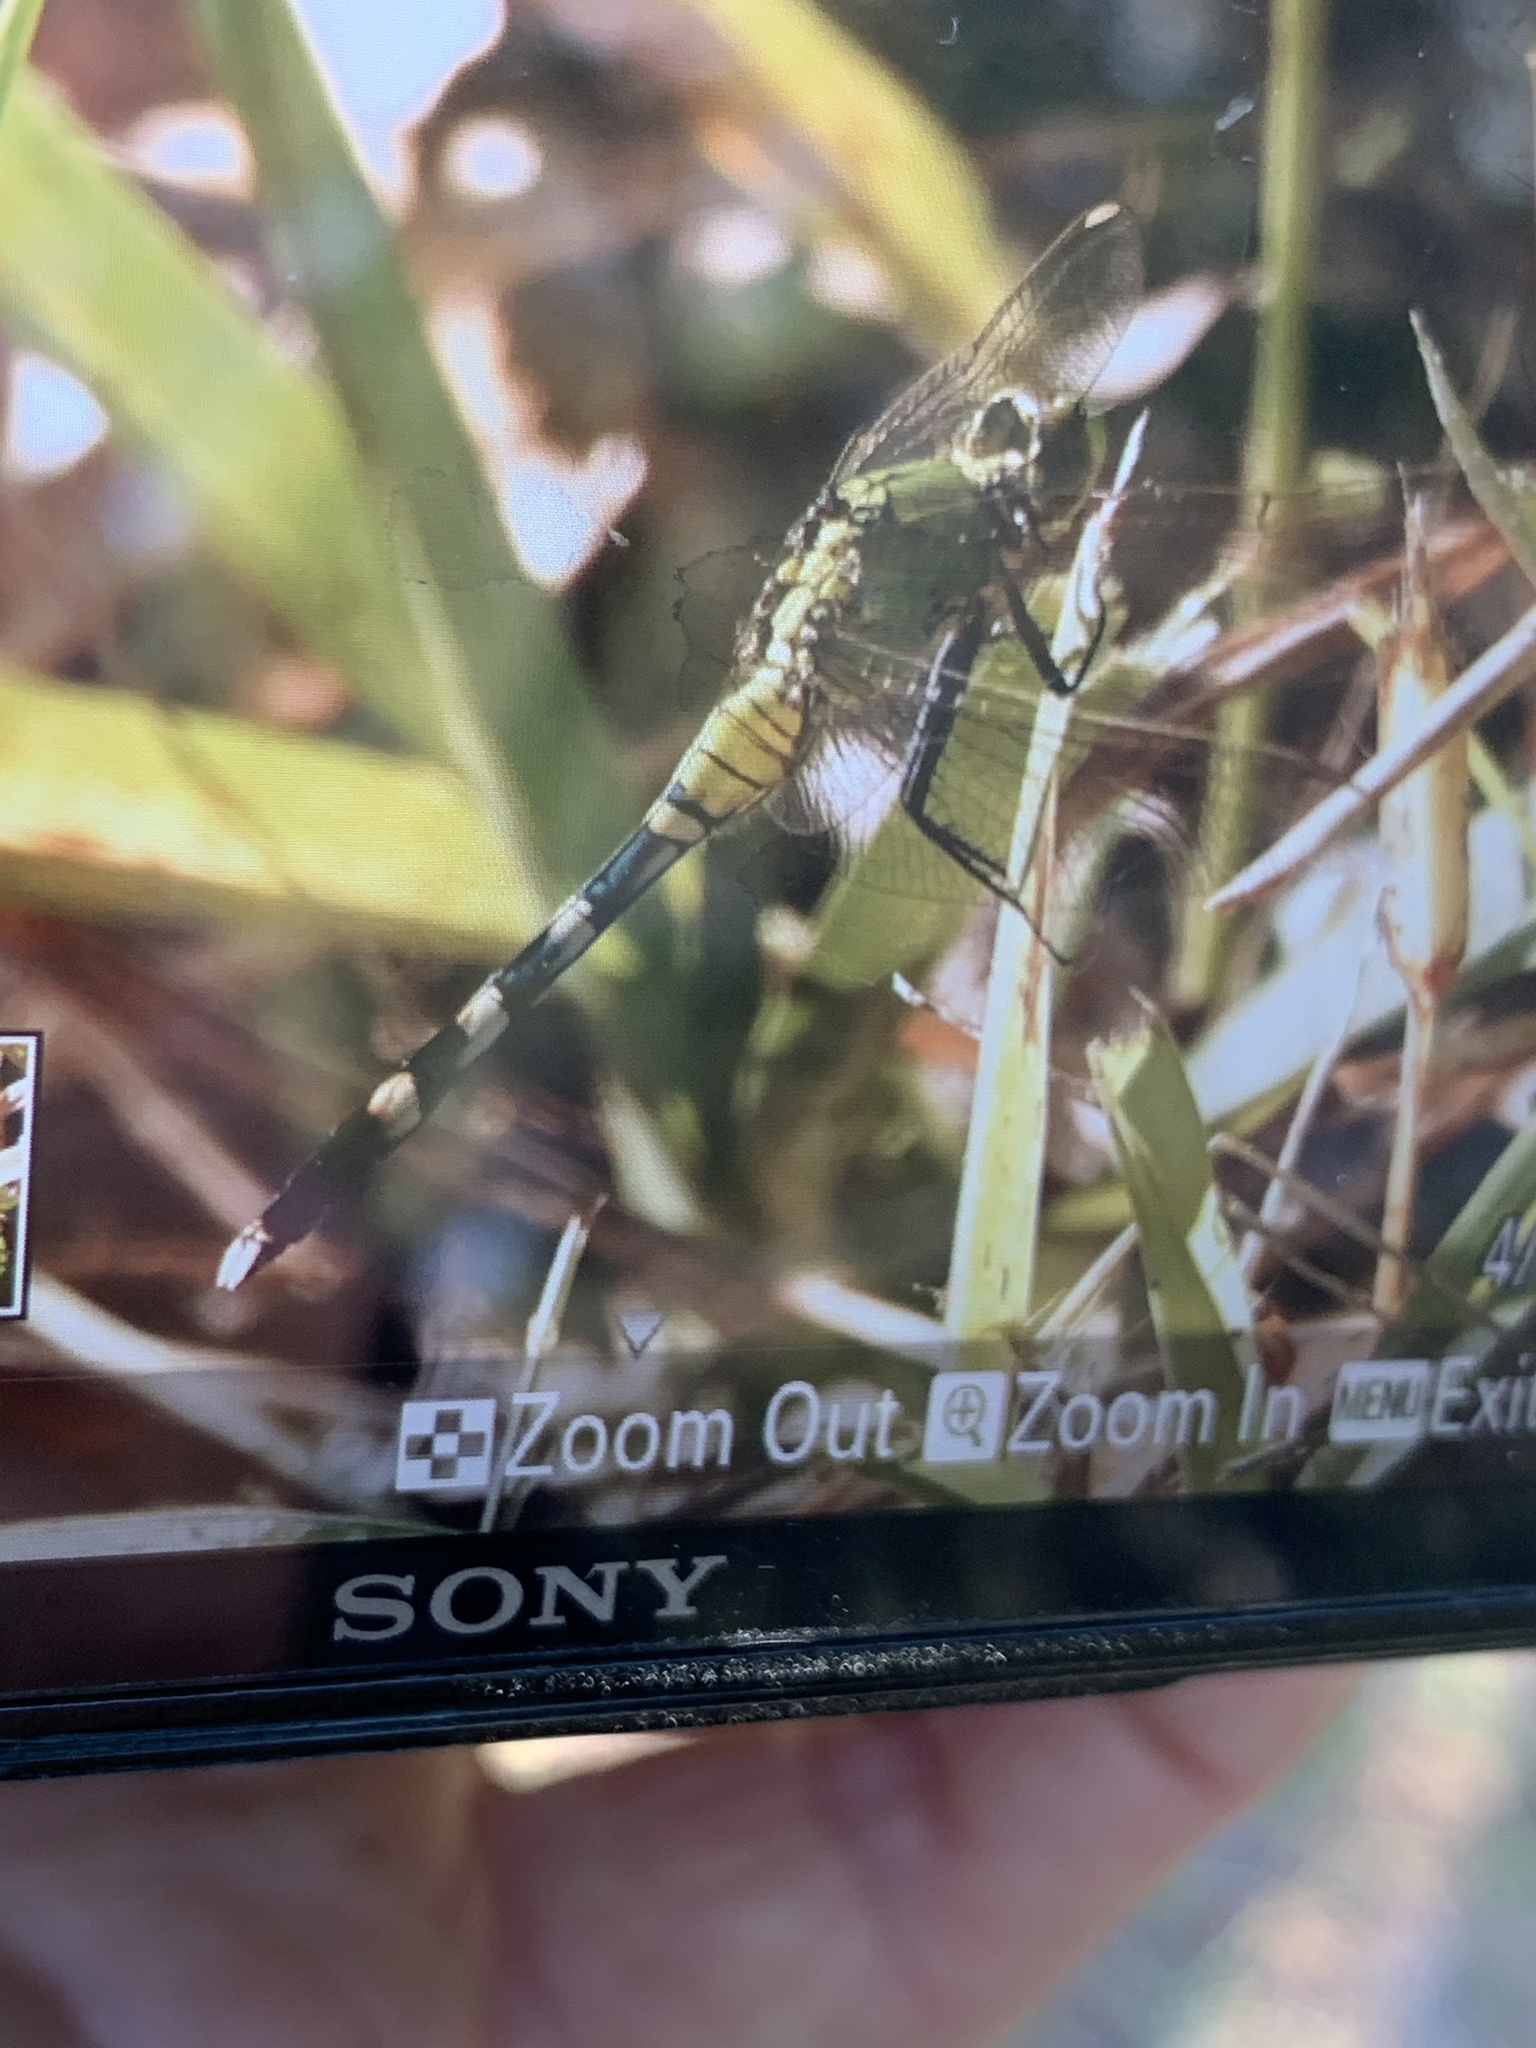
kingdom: Animalia
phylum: Arthropoda
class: Insecta
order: Odonata
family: Libellulidae
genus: Erythemis
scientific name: Erythemis simplicicollis
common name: Eastern pondhawk
